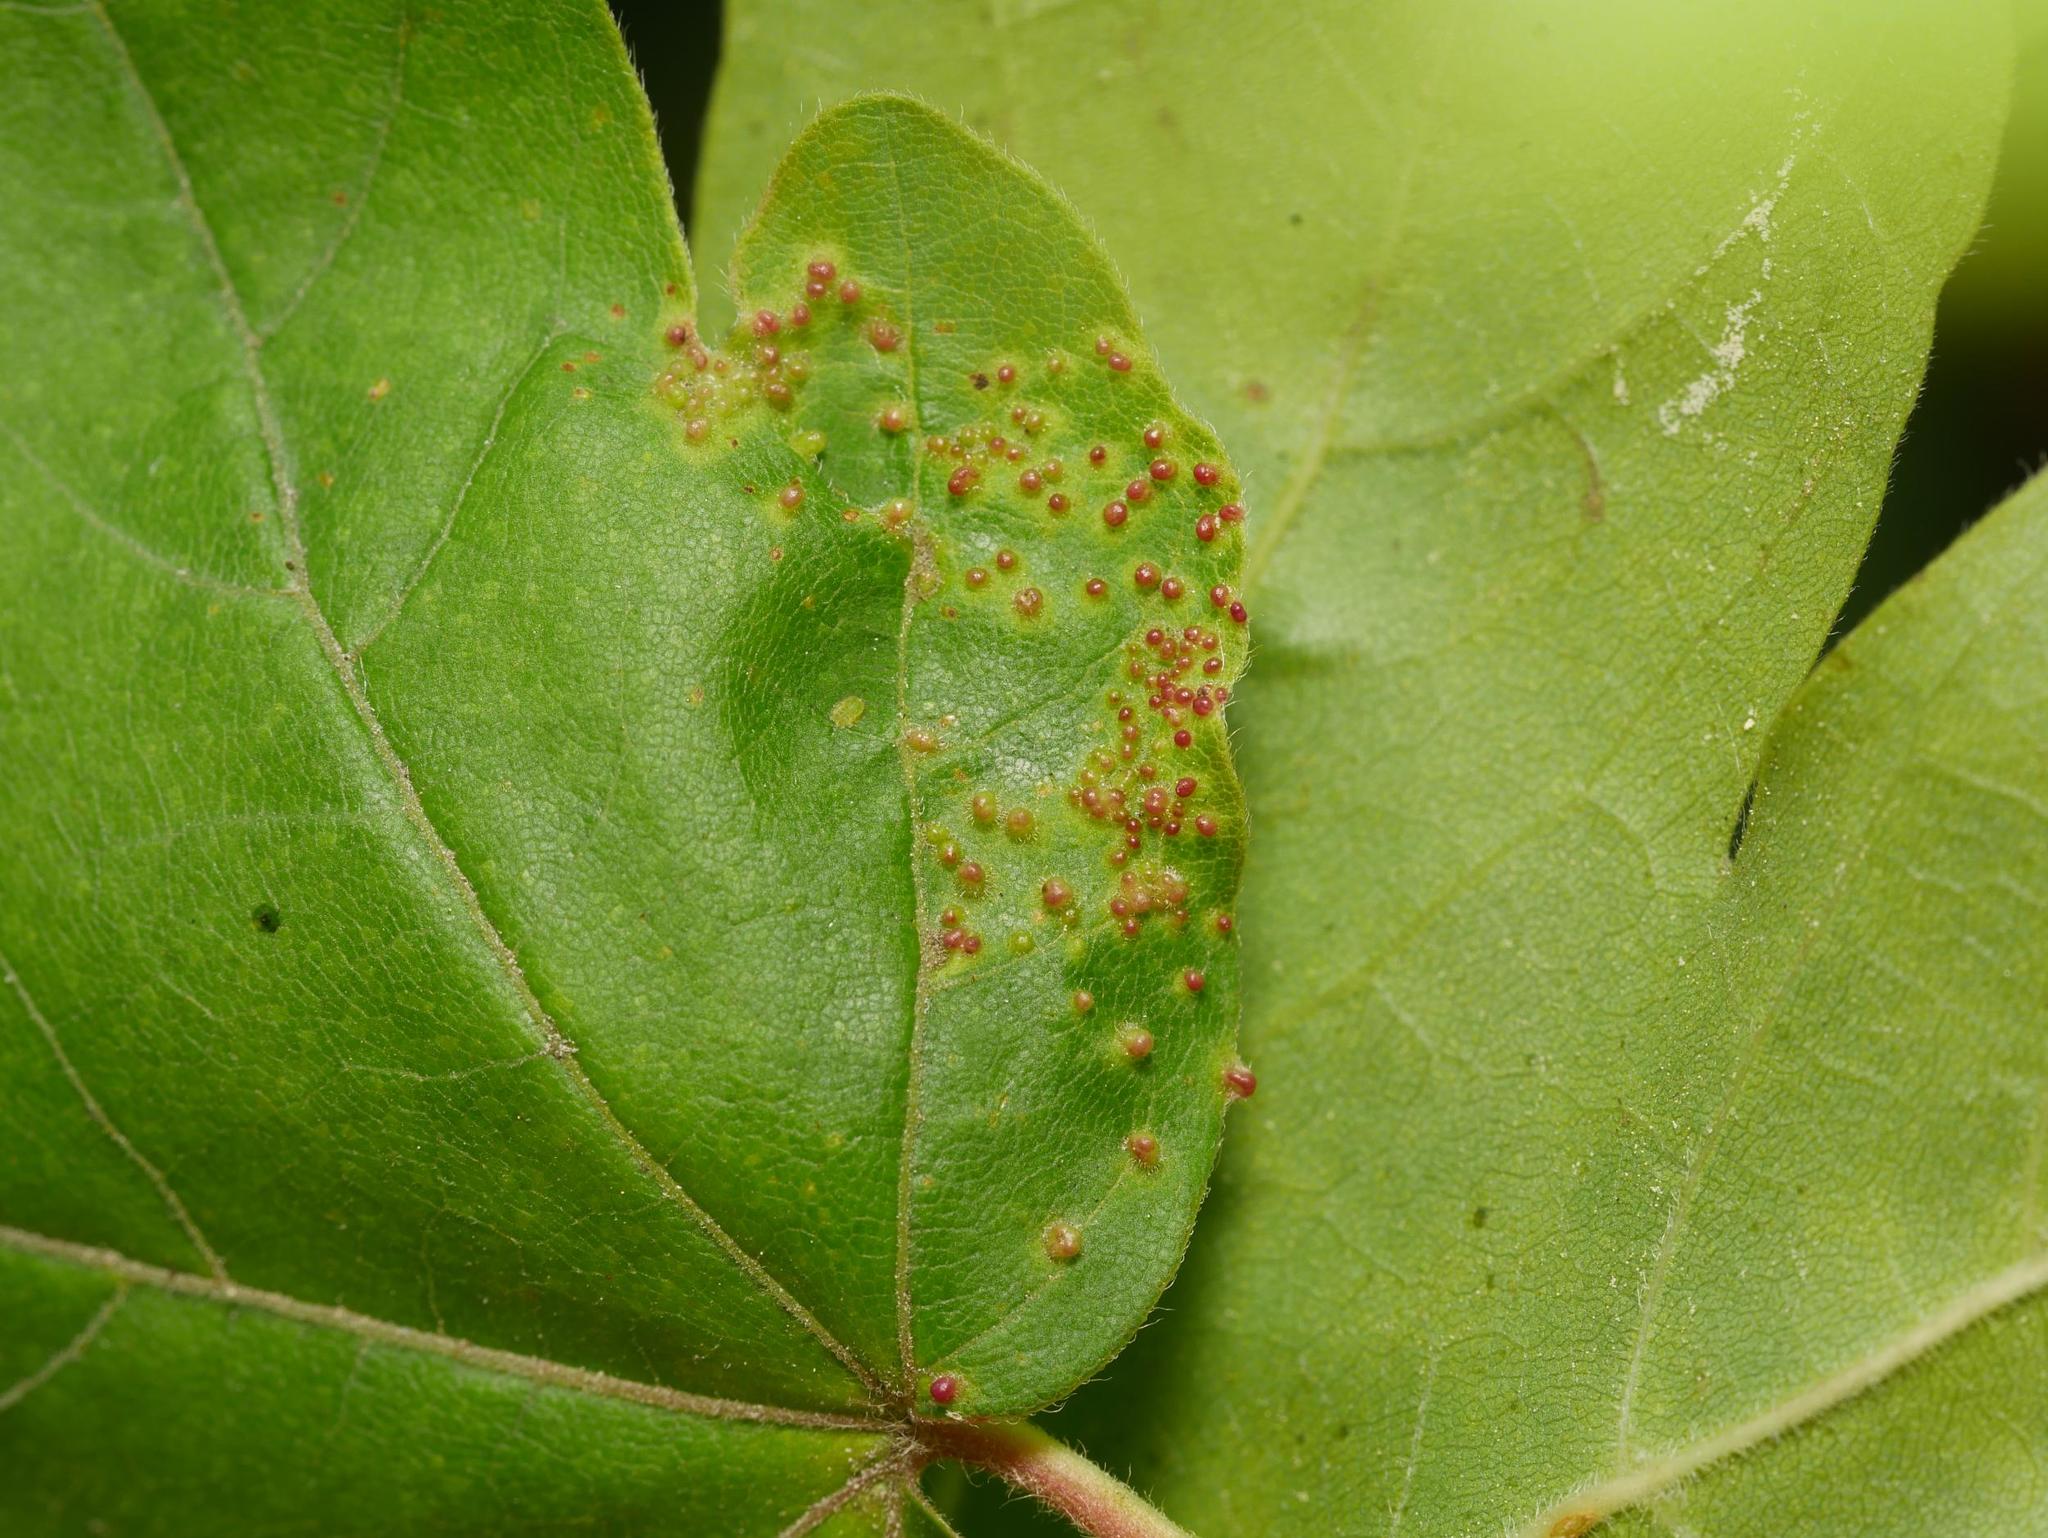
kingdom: Animalia
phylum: Arthropoda
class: Arachnida
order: Trombidiformes
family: Eriophyidae
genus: Aceria
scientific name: Aceria myriadeum
